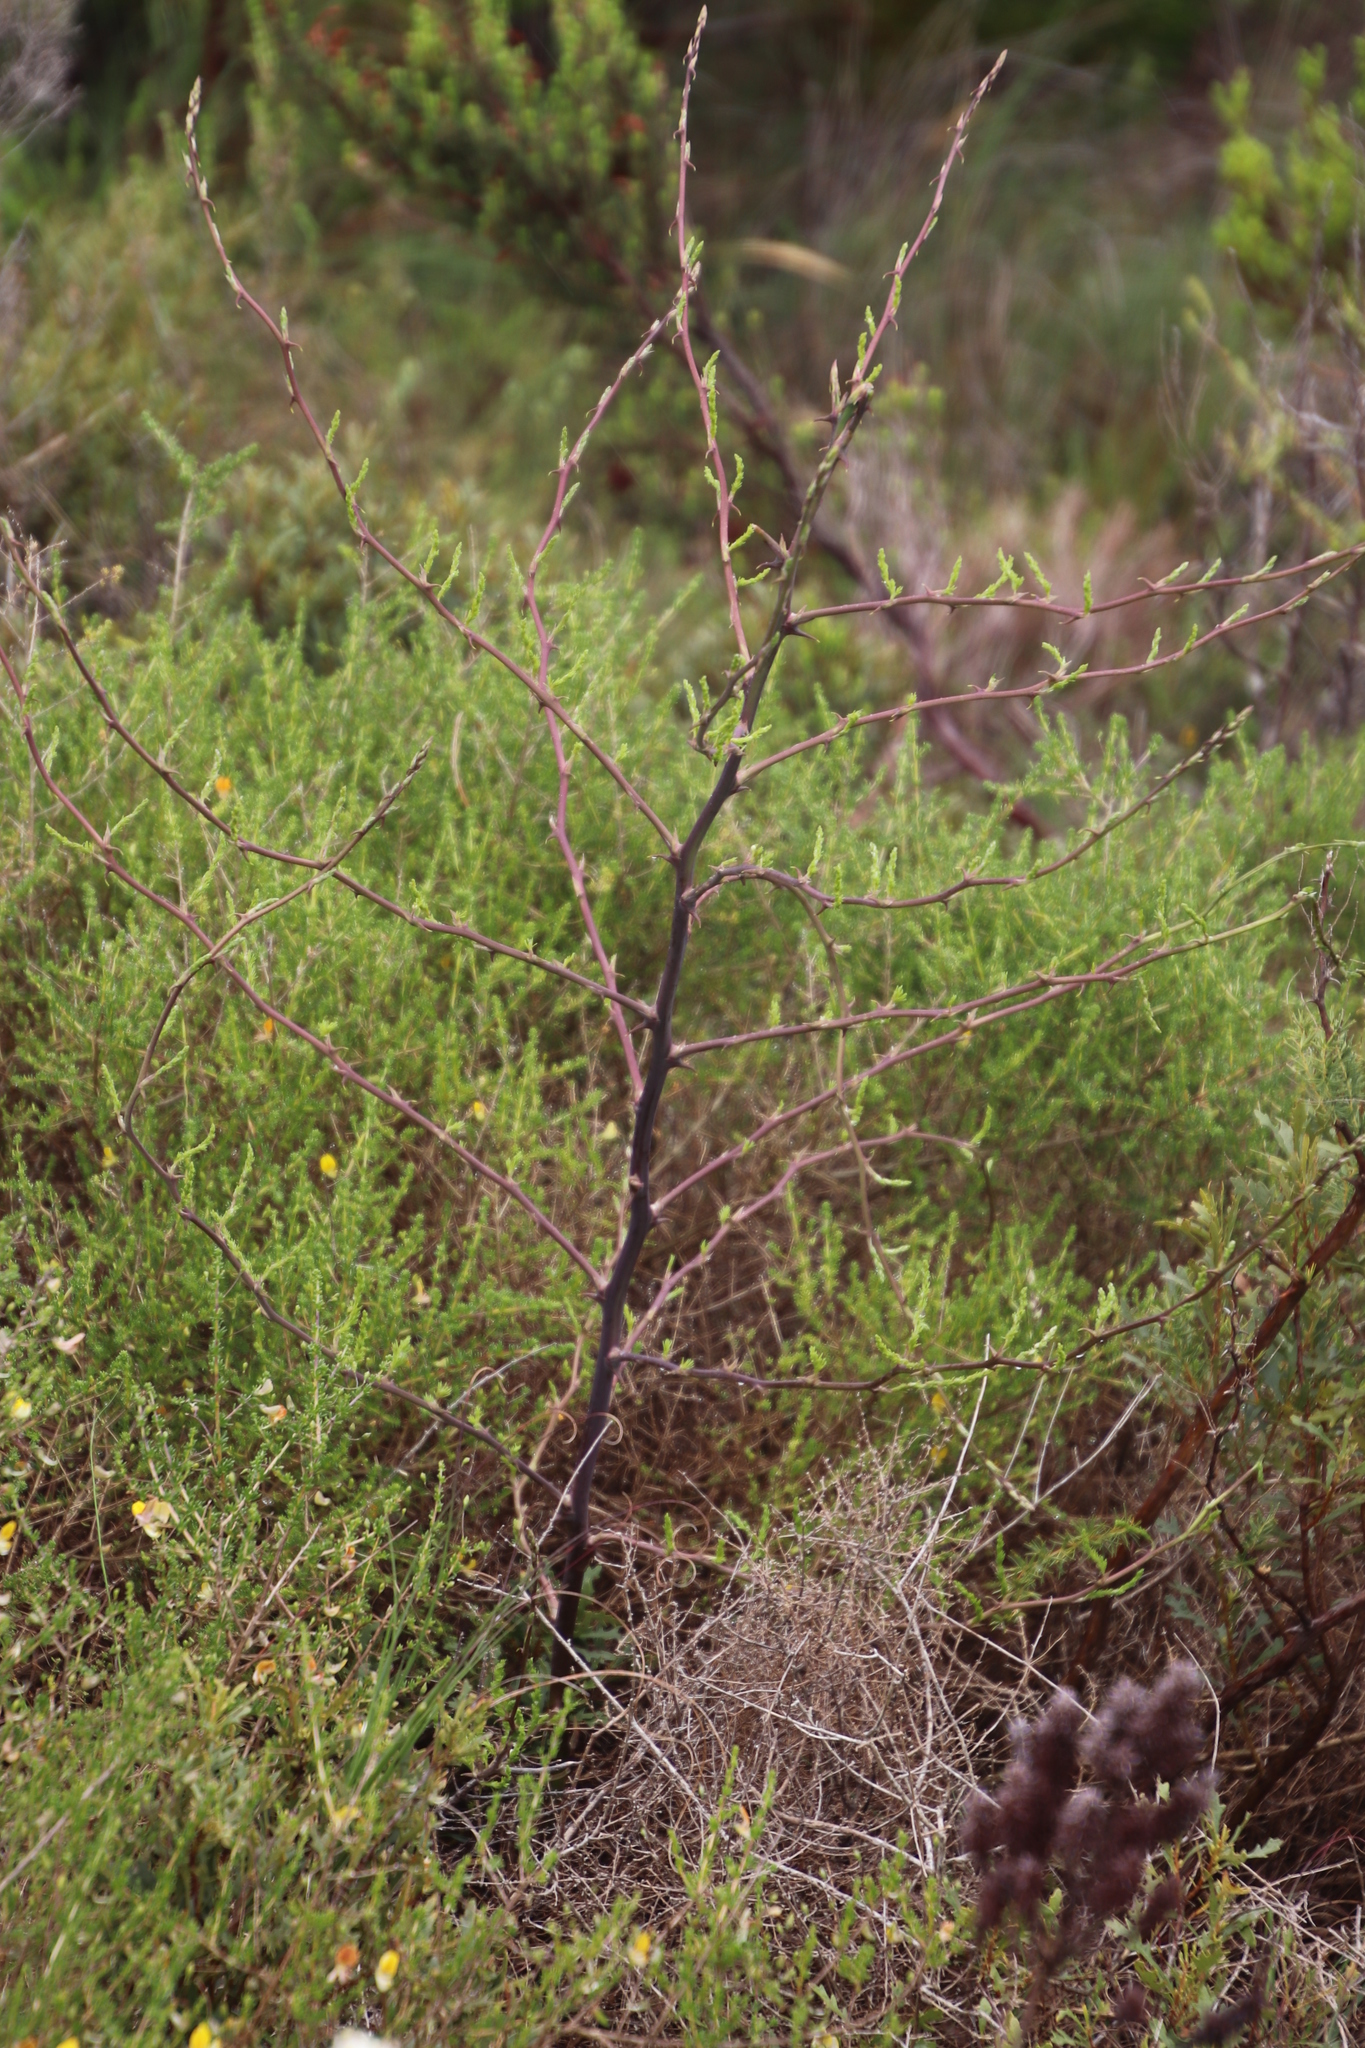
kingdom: Plantae
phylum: Tracheophyta
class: Liliopsida
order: Asparagales
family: Asparagaceae
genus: Asparagus
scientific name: Asparagus rubicundus
